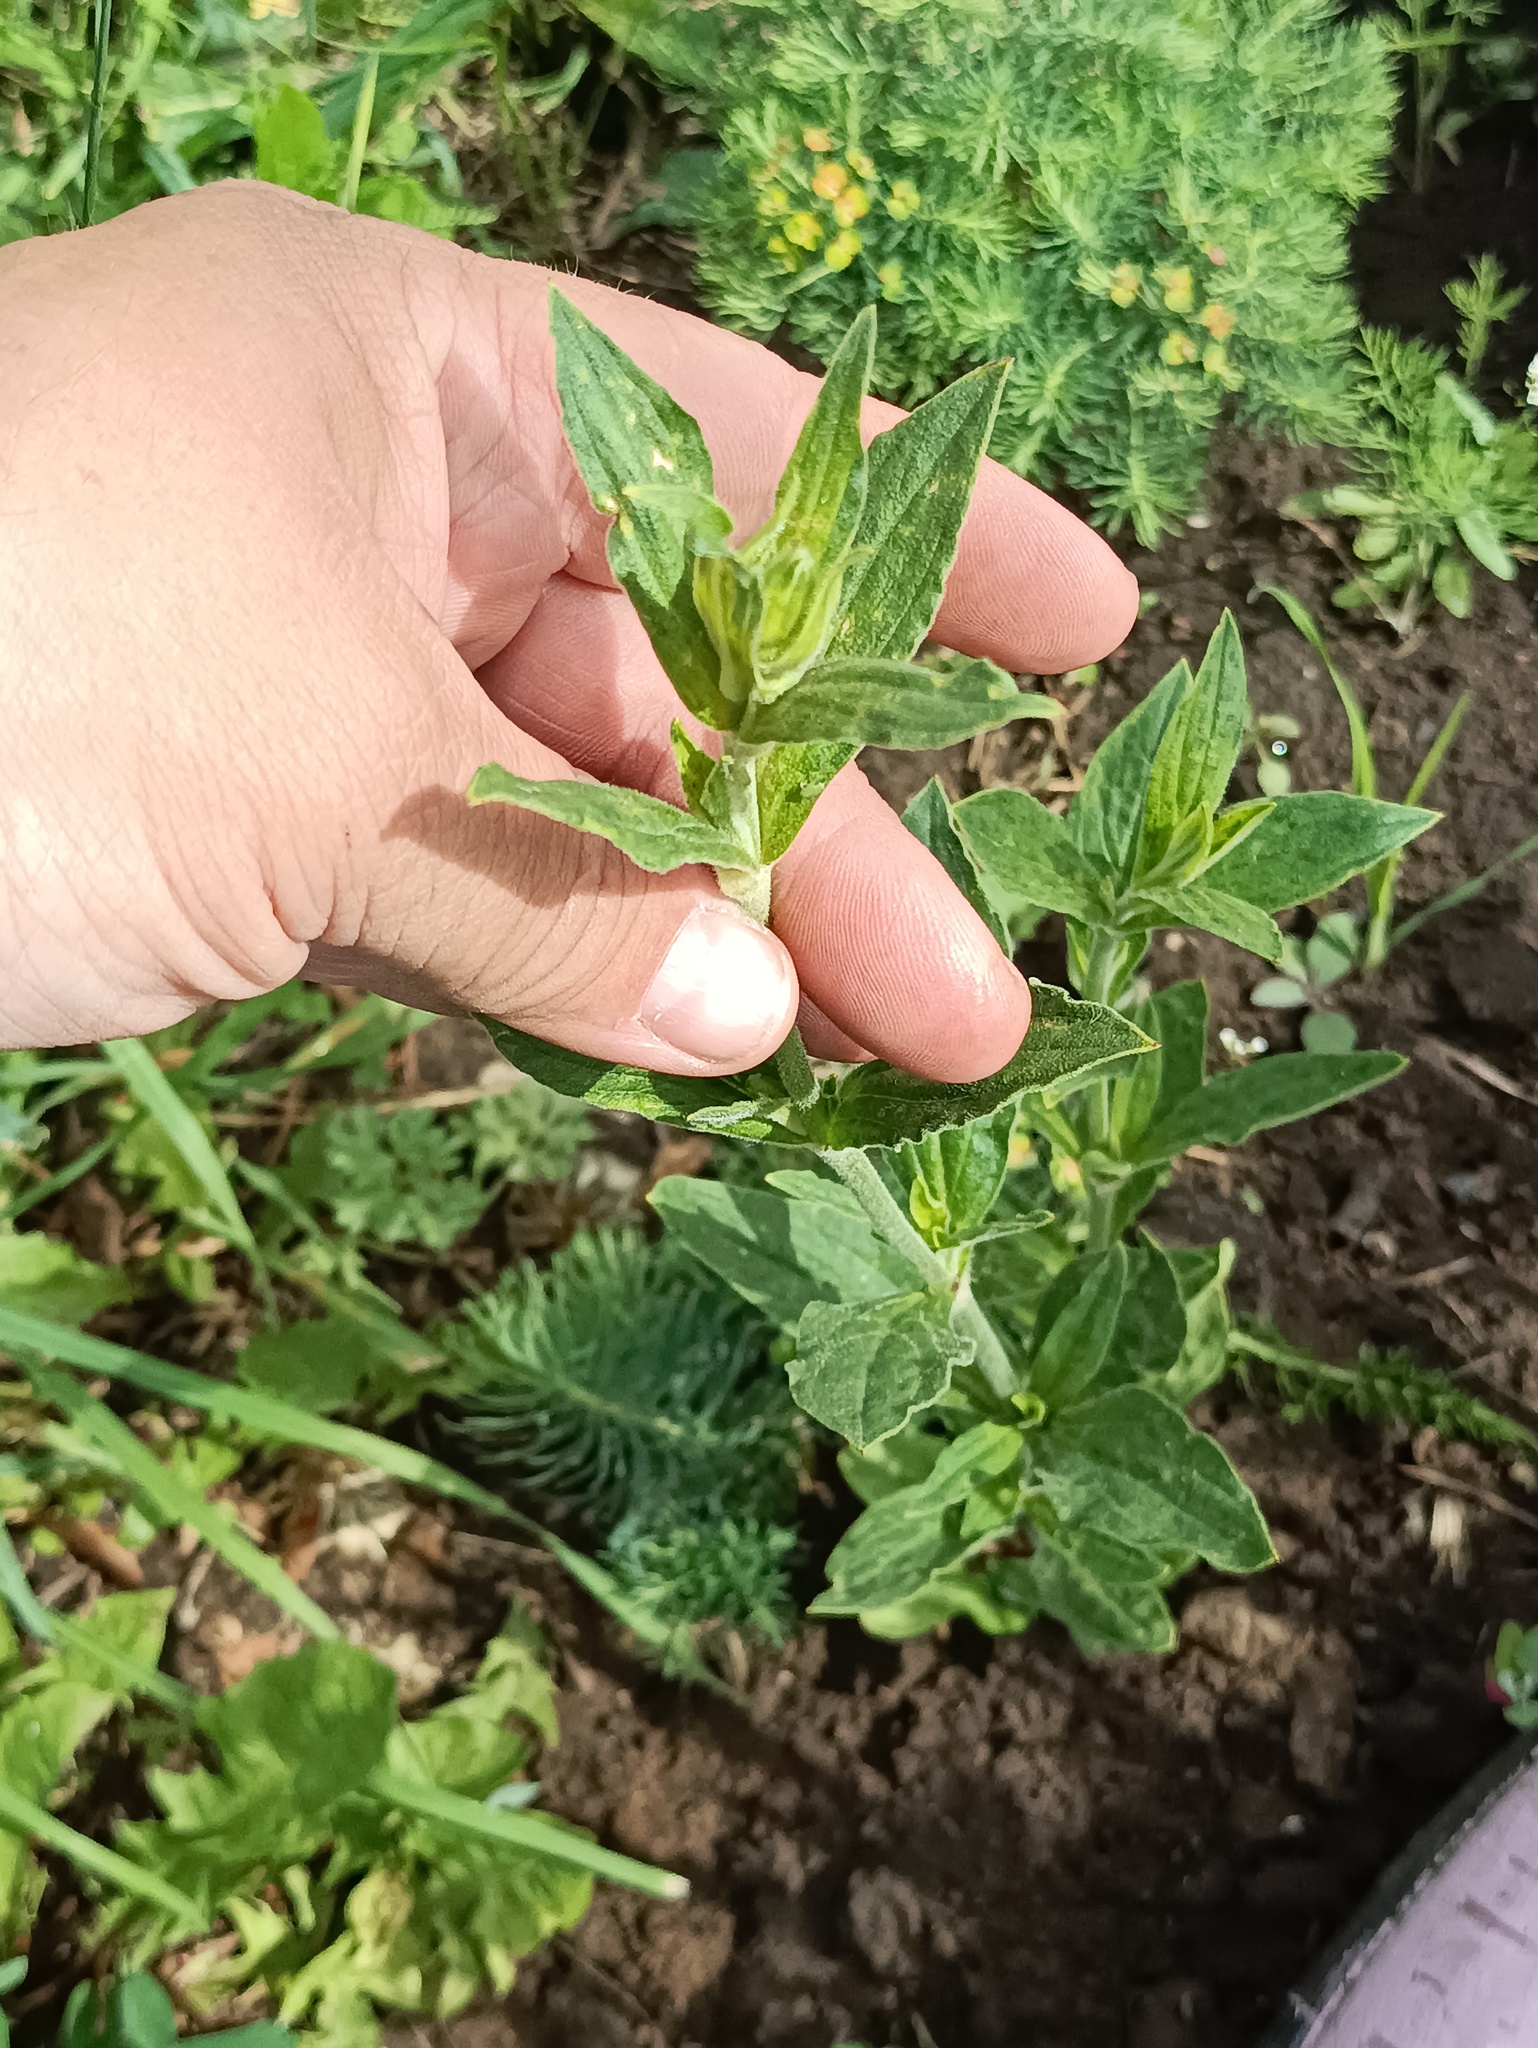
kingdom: Plantae
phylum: Tracheophyta
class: Magnoliopsida
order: Caryophyllales
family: Caryophyllaceae
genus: Silene
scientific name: Silene latifolia
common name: White campion
